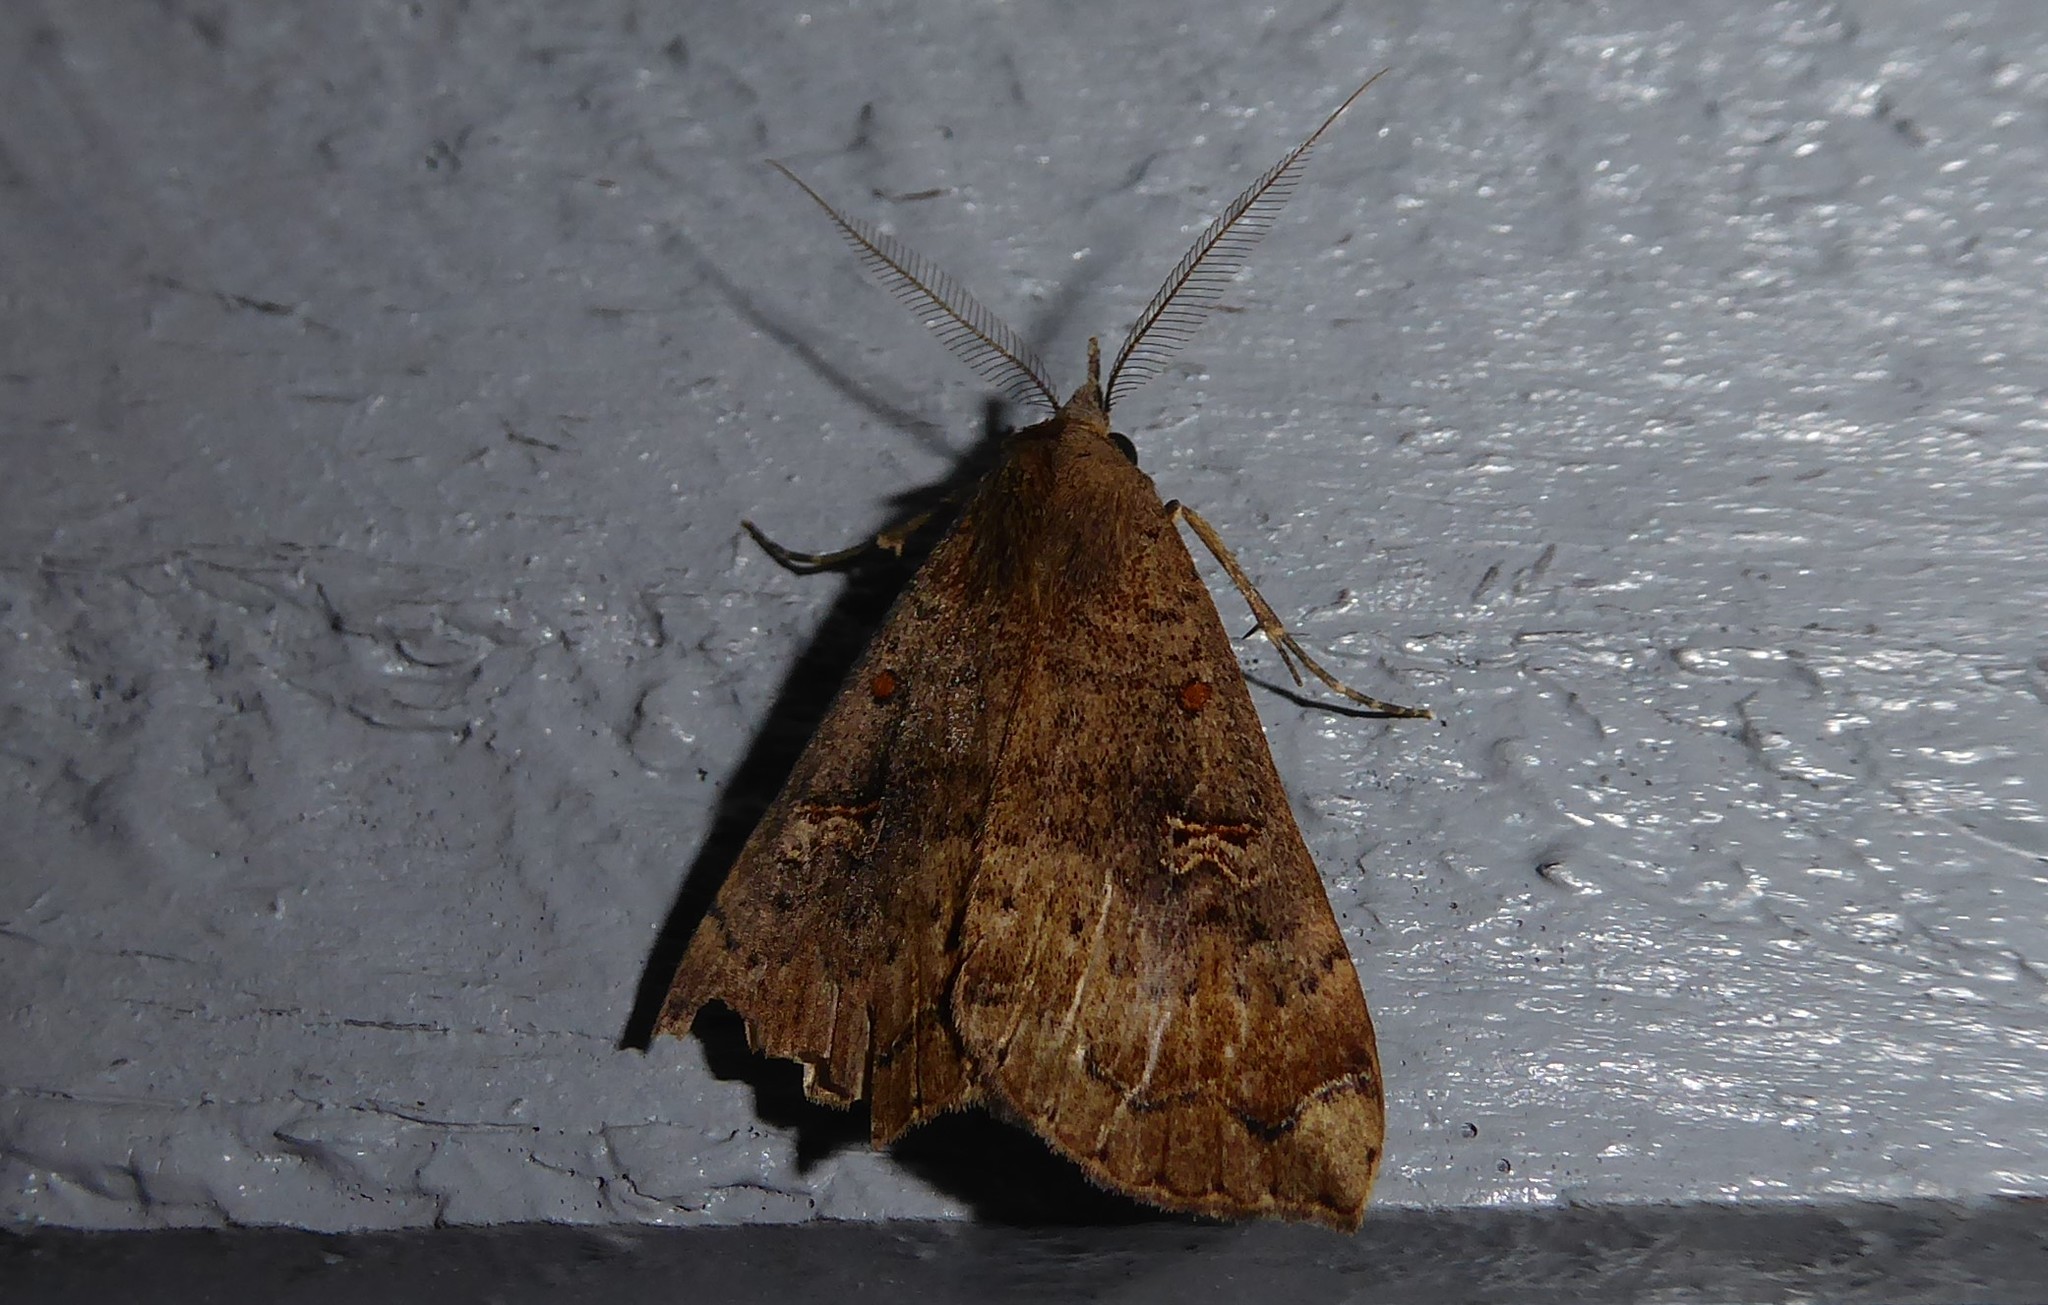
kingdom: Animalia
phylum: Arthropoda
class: Insecta
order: Lepidoptera
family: Erebidae
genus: Rhapsa
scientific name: Rhapsa scotosialis
